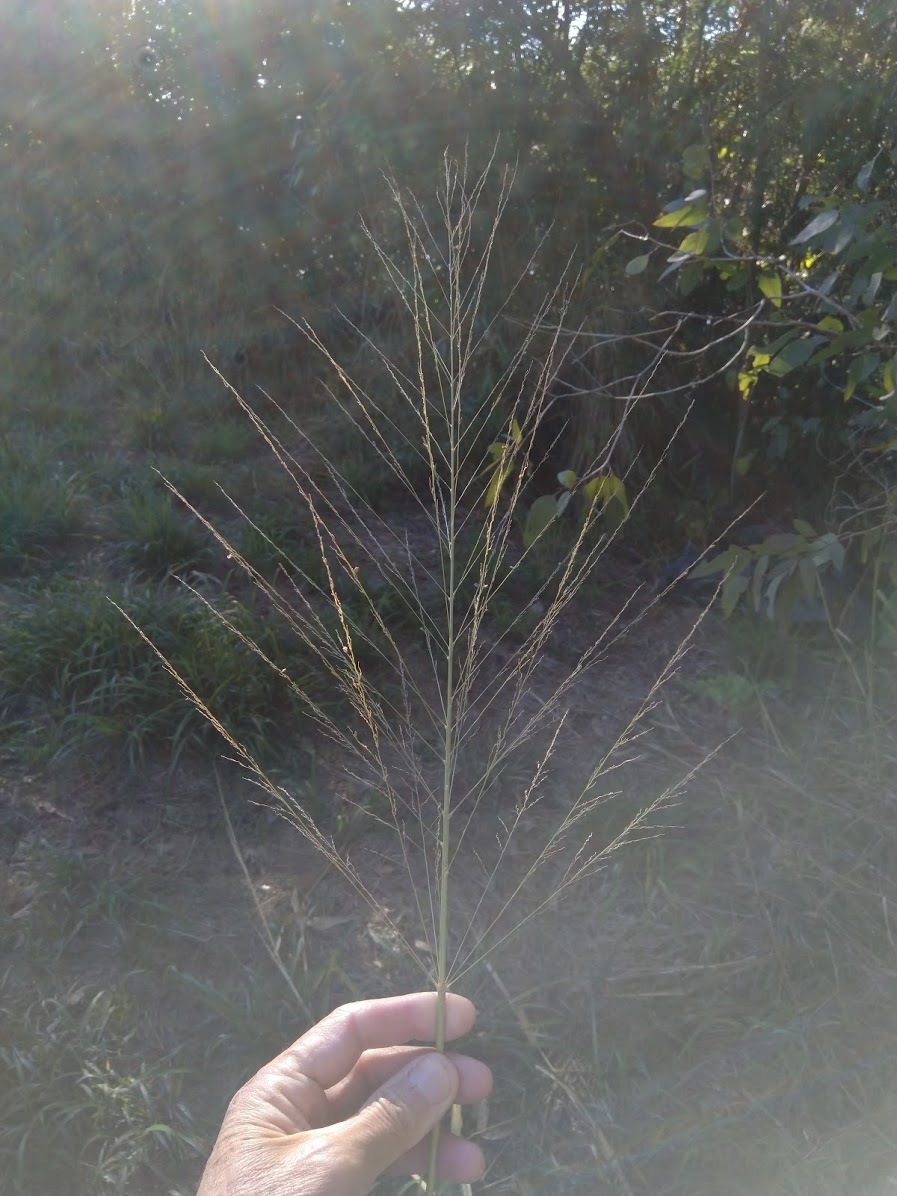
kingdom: Plantae
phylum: Tracheophyta
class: Liliopsida
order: Poales
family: Poaceae
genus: Megathyrsus
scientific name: Megathyrsus maximus
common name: Guineagrass
